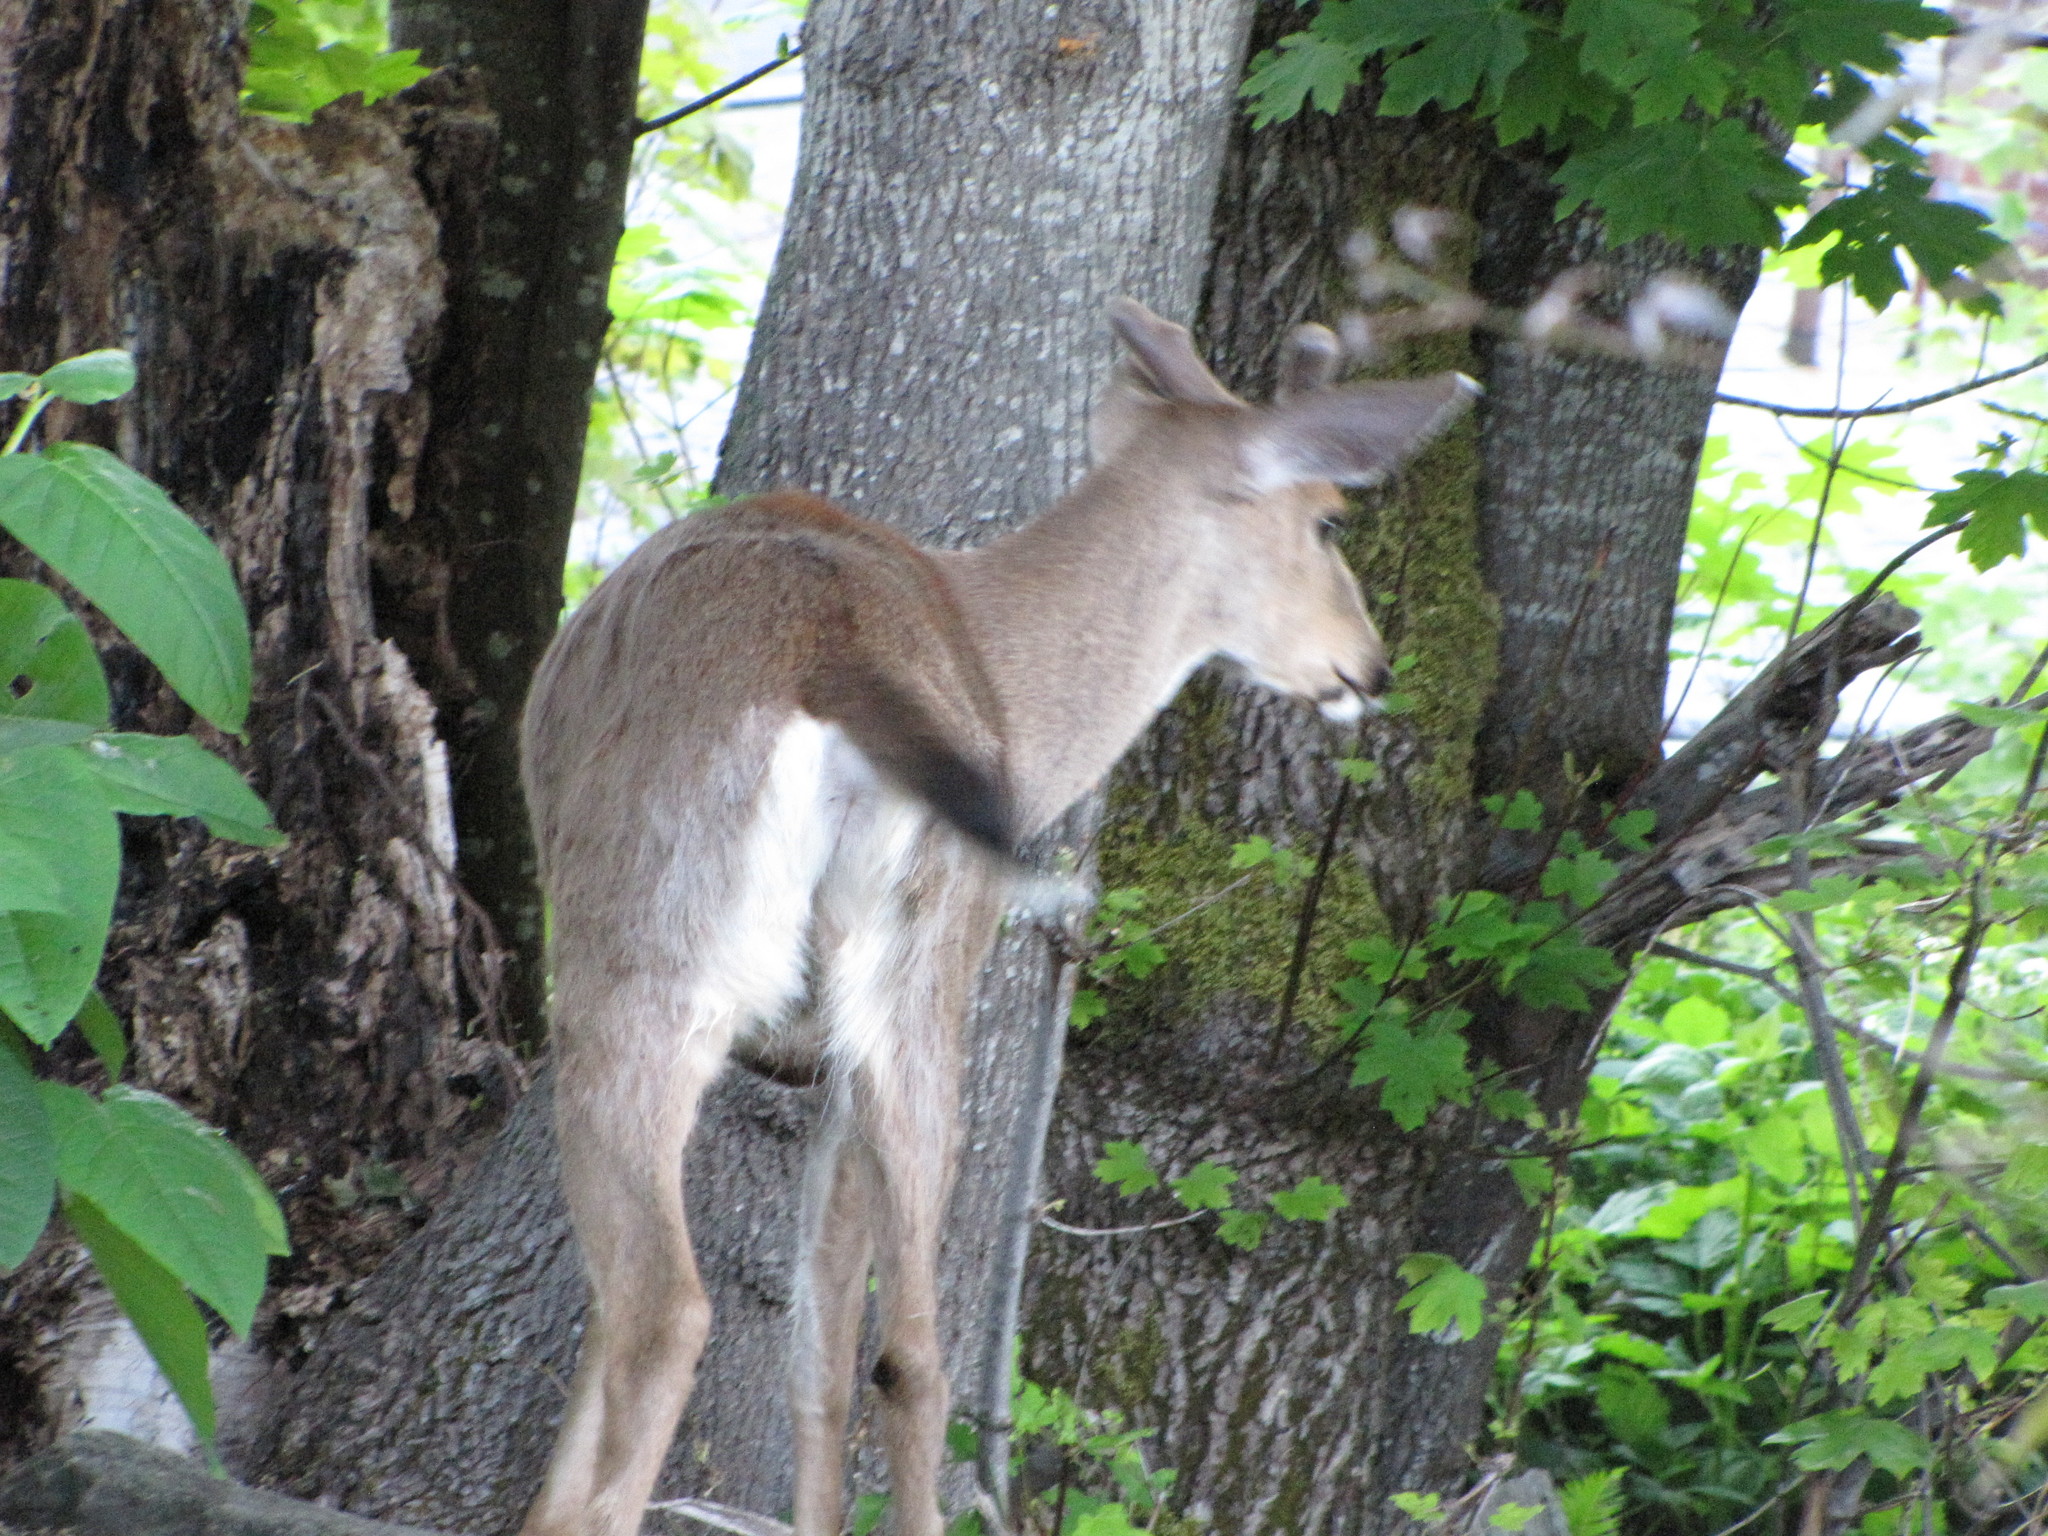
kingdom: Animalia
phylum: Chordata
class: Mammalia
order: Artiodactyla
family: Cervidae
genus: Odocoileus
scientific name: Odocoileus hemionus
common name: Mule deer
